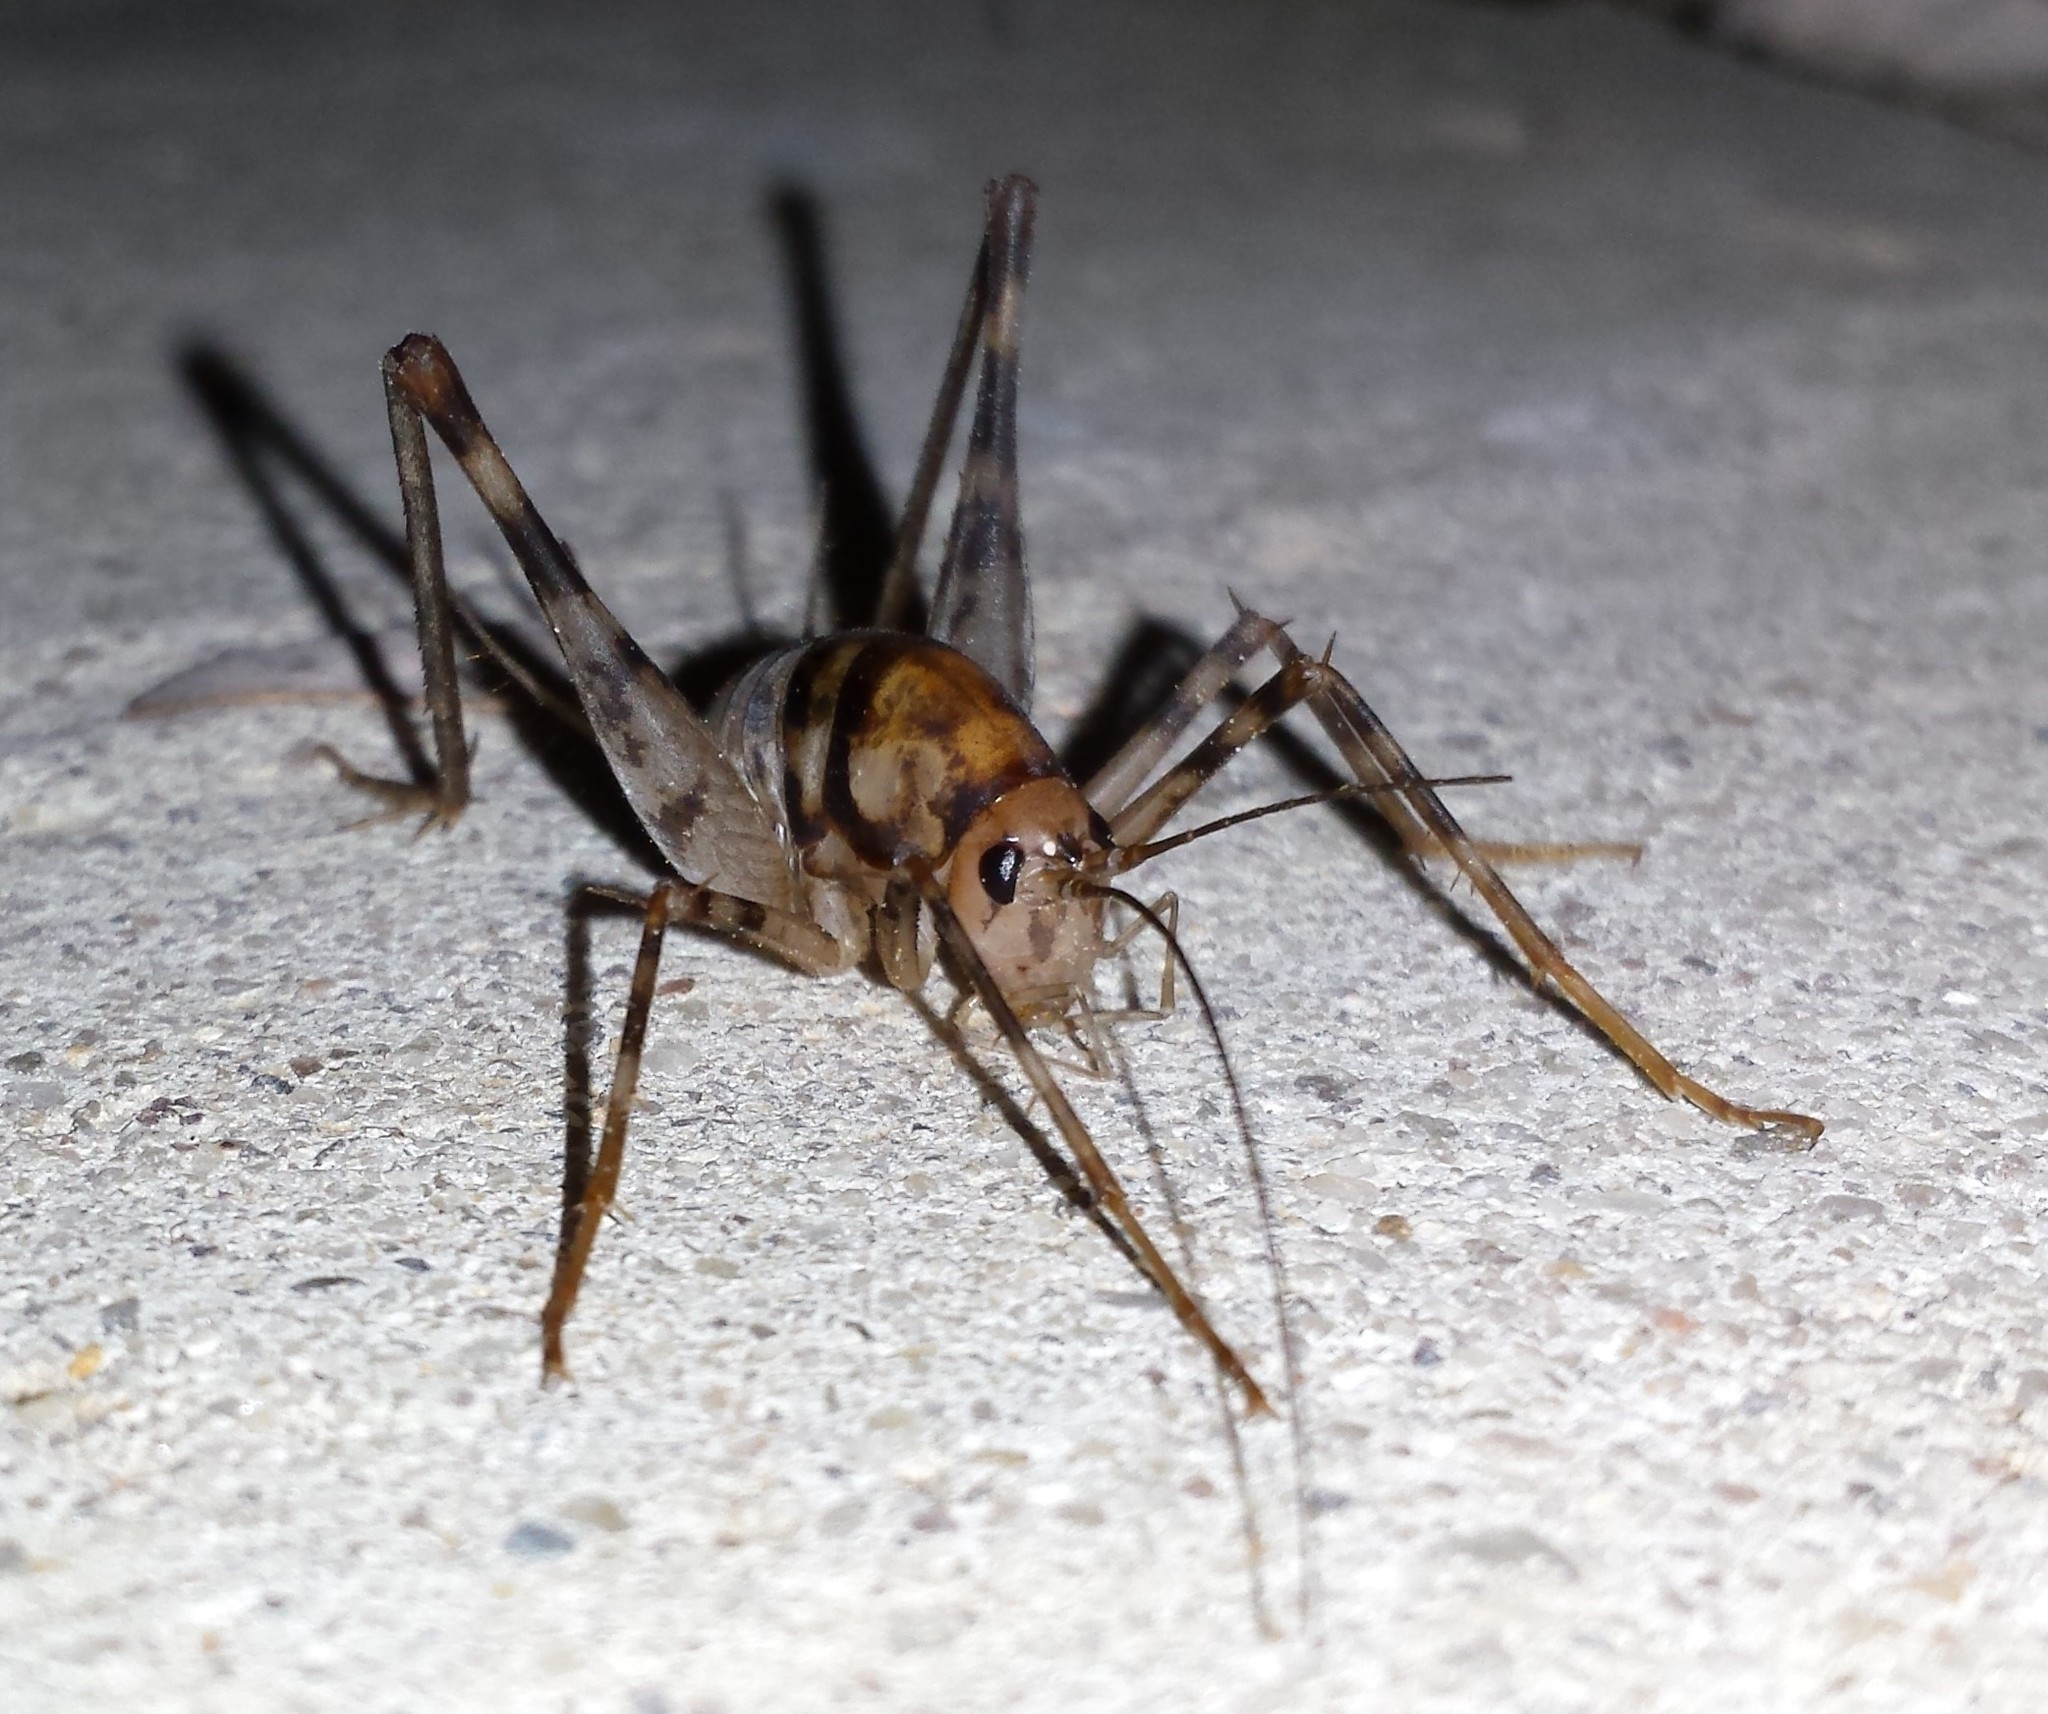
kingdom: Animalia
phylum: Arthropoda
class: Insecta
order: Orthoptera
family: Rhaphidophoridae
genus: Tachycines
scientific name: Tachycines asynamorus
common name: Greenhouse camel cricket
